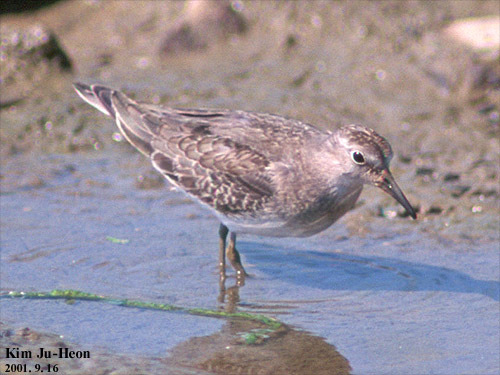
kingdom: Animalia
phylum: Chordata
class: Aves
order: Charadriiformes
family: Scolopacidae
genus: Calidris
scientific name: Calidris temminckii
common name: Temminck's stint
